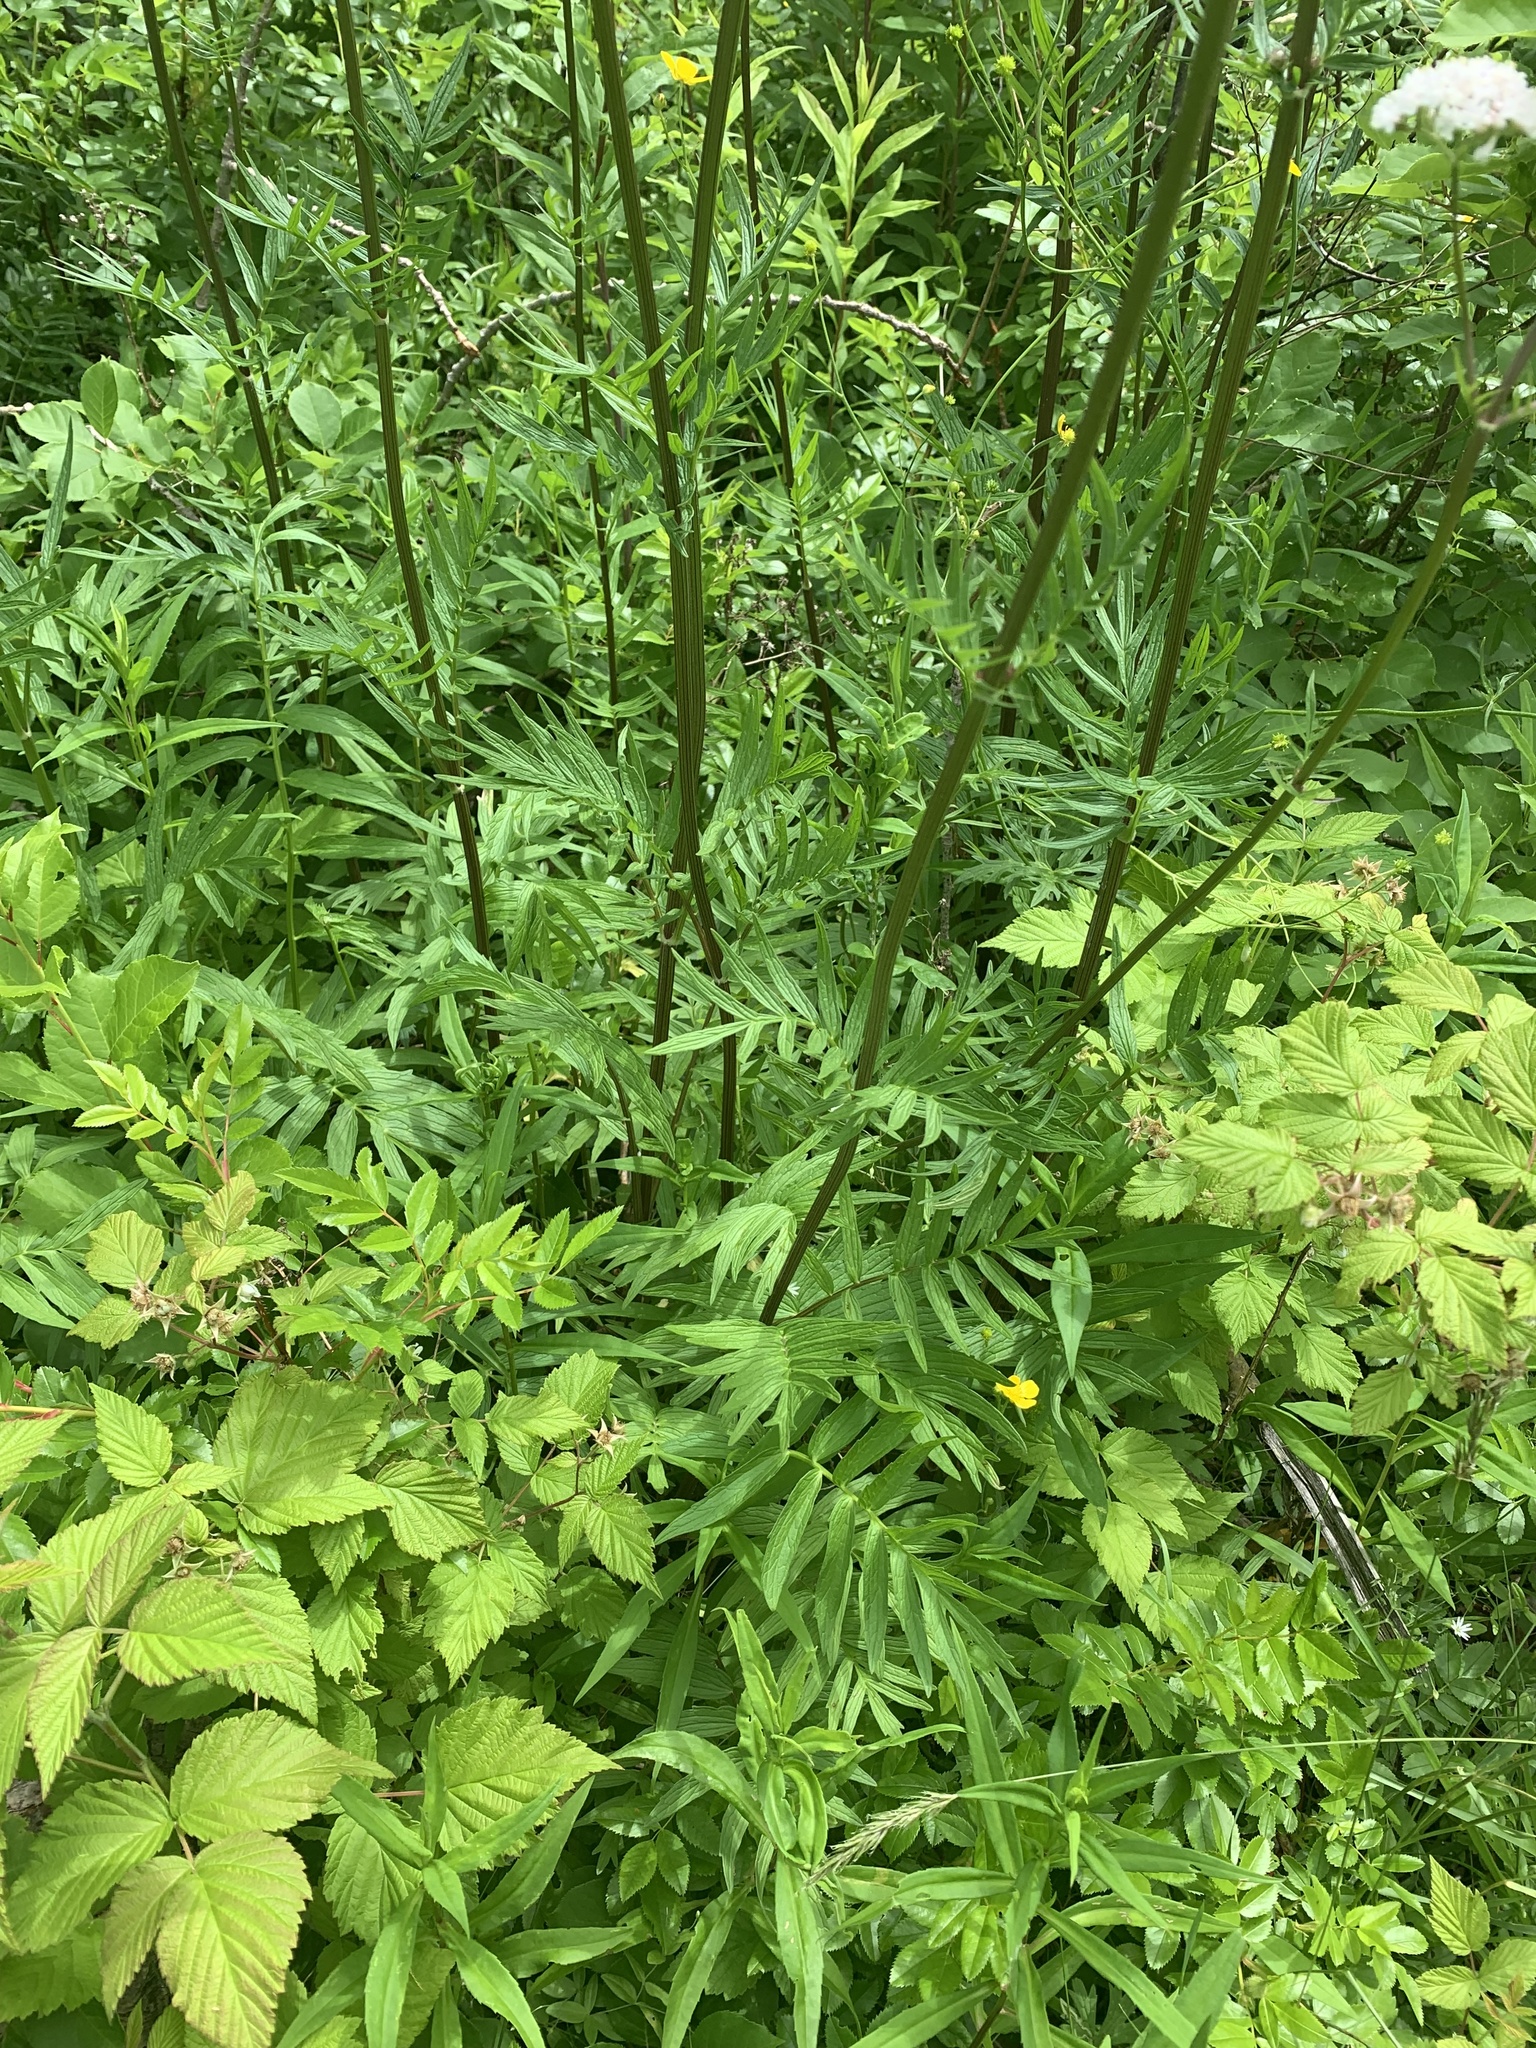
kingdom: Plantae
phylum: Tracheophyta
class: Magnoliopsida
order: Dipsacales
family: Caprifoliaceae
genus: Valeriana
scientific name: Valeriana officinalis
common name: Common valerian
